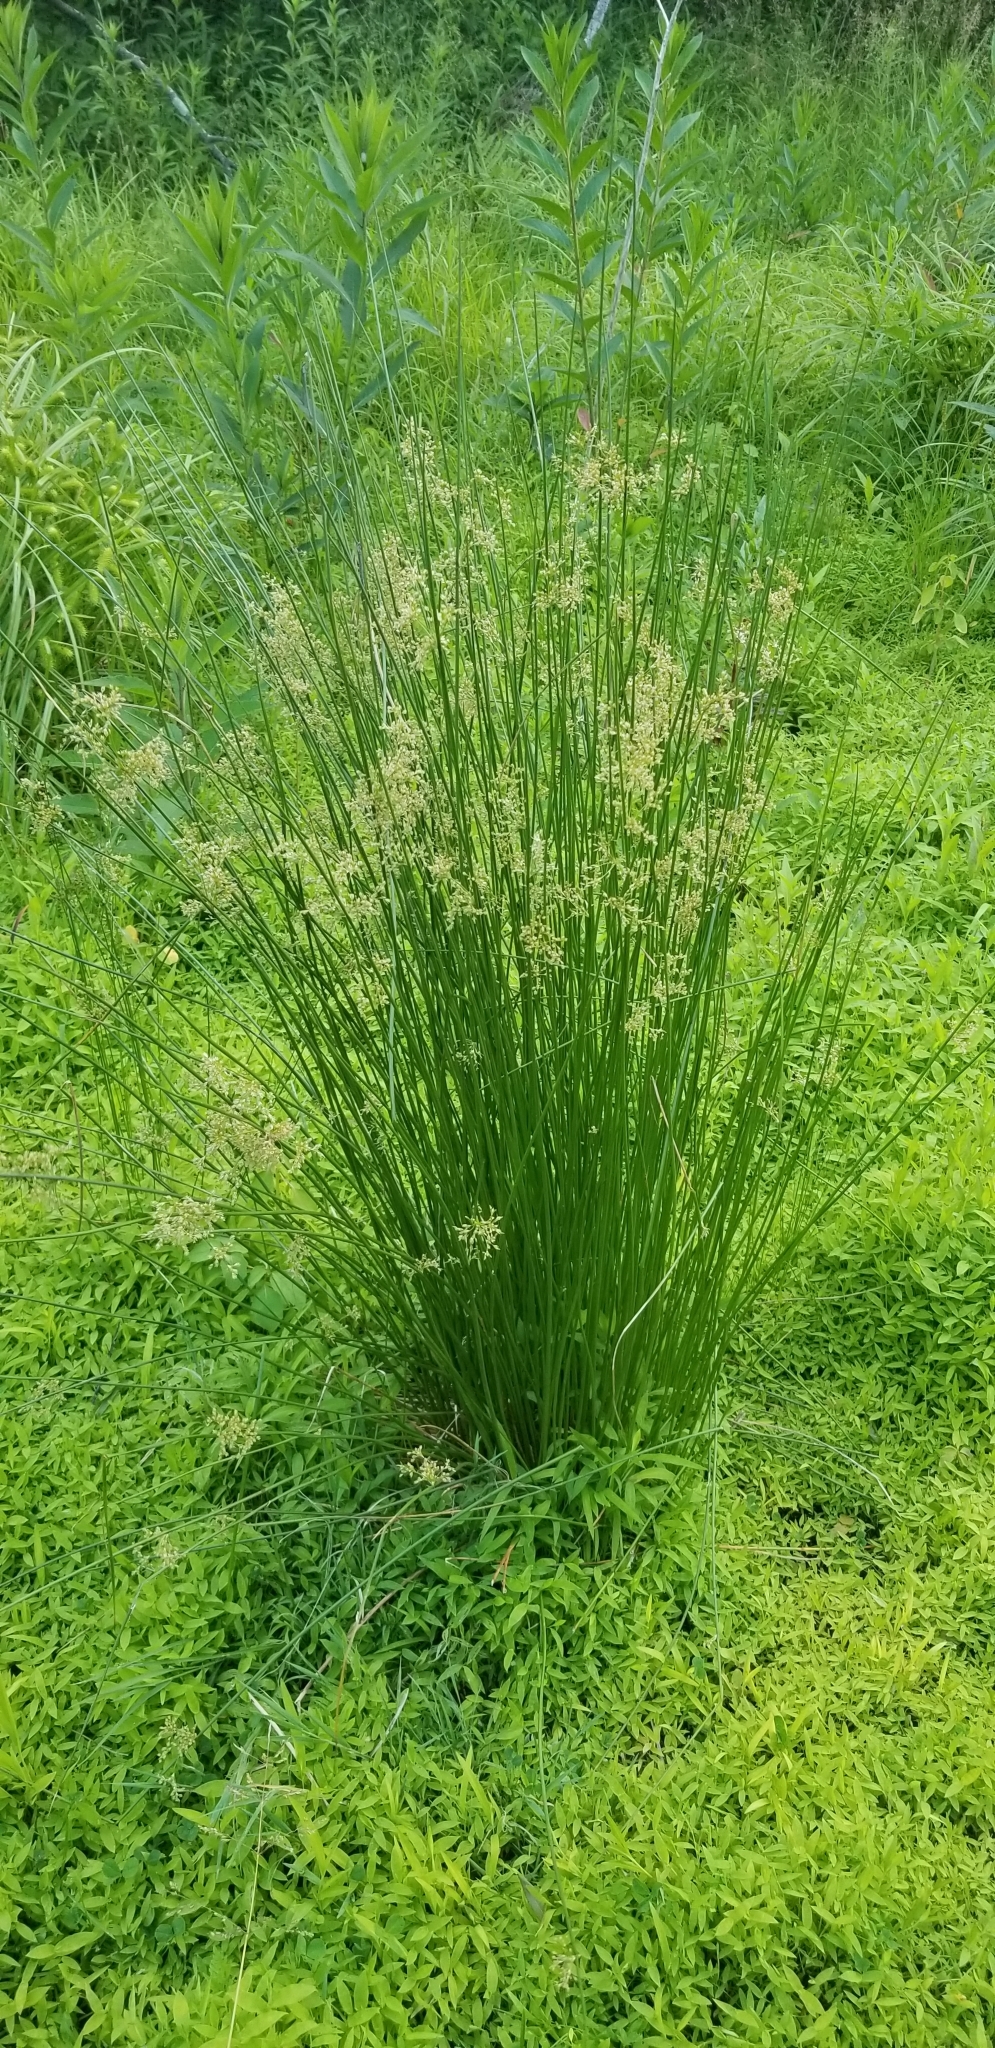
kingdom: Plantae
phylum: Tracheophyta
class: Liliopsida
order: Poales
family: Juncaceae
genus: Juncus
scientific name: Juncus effusus
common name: Soft rush
